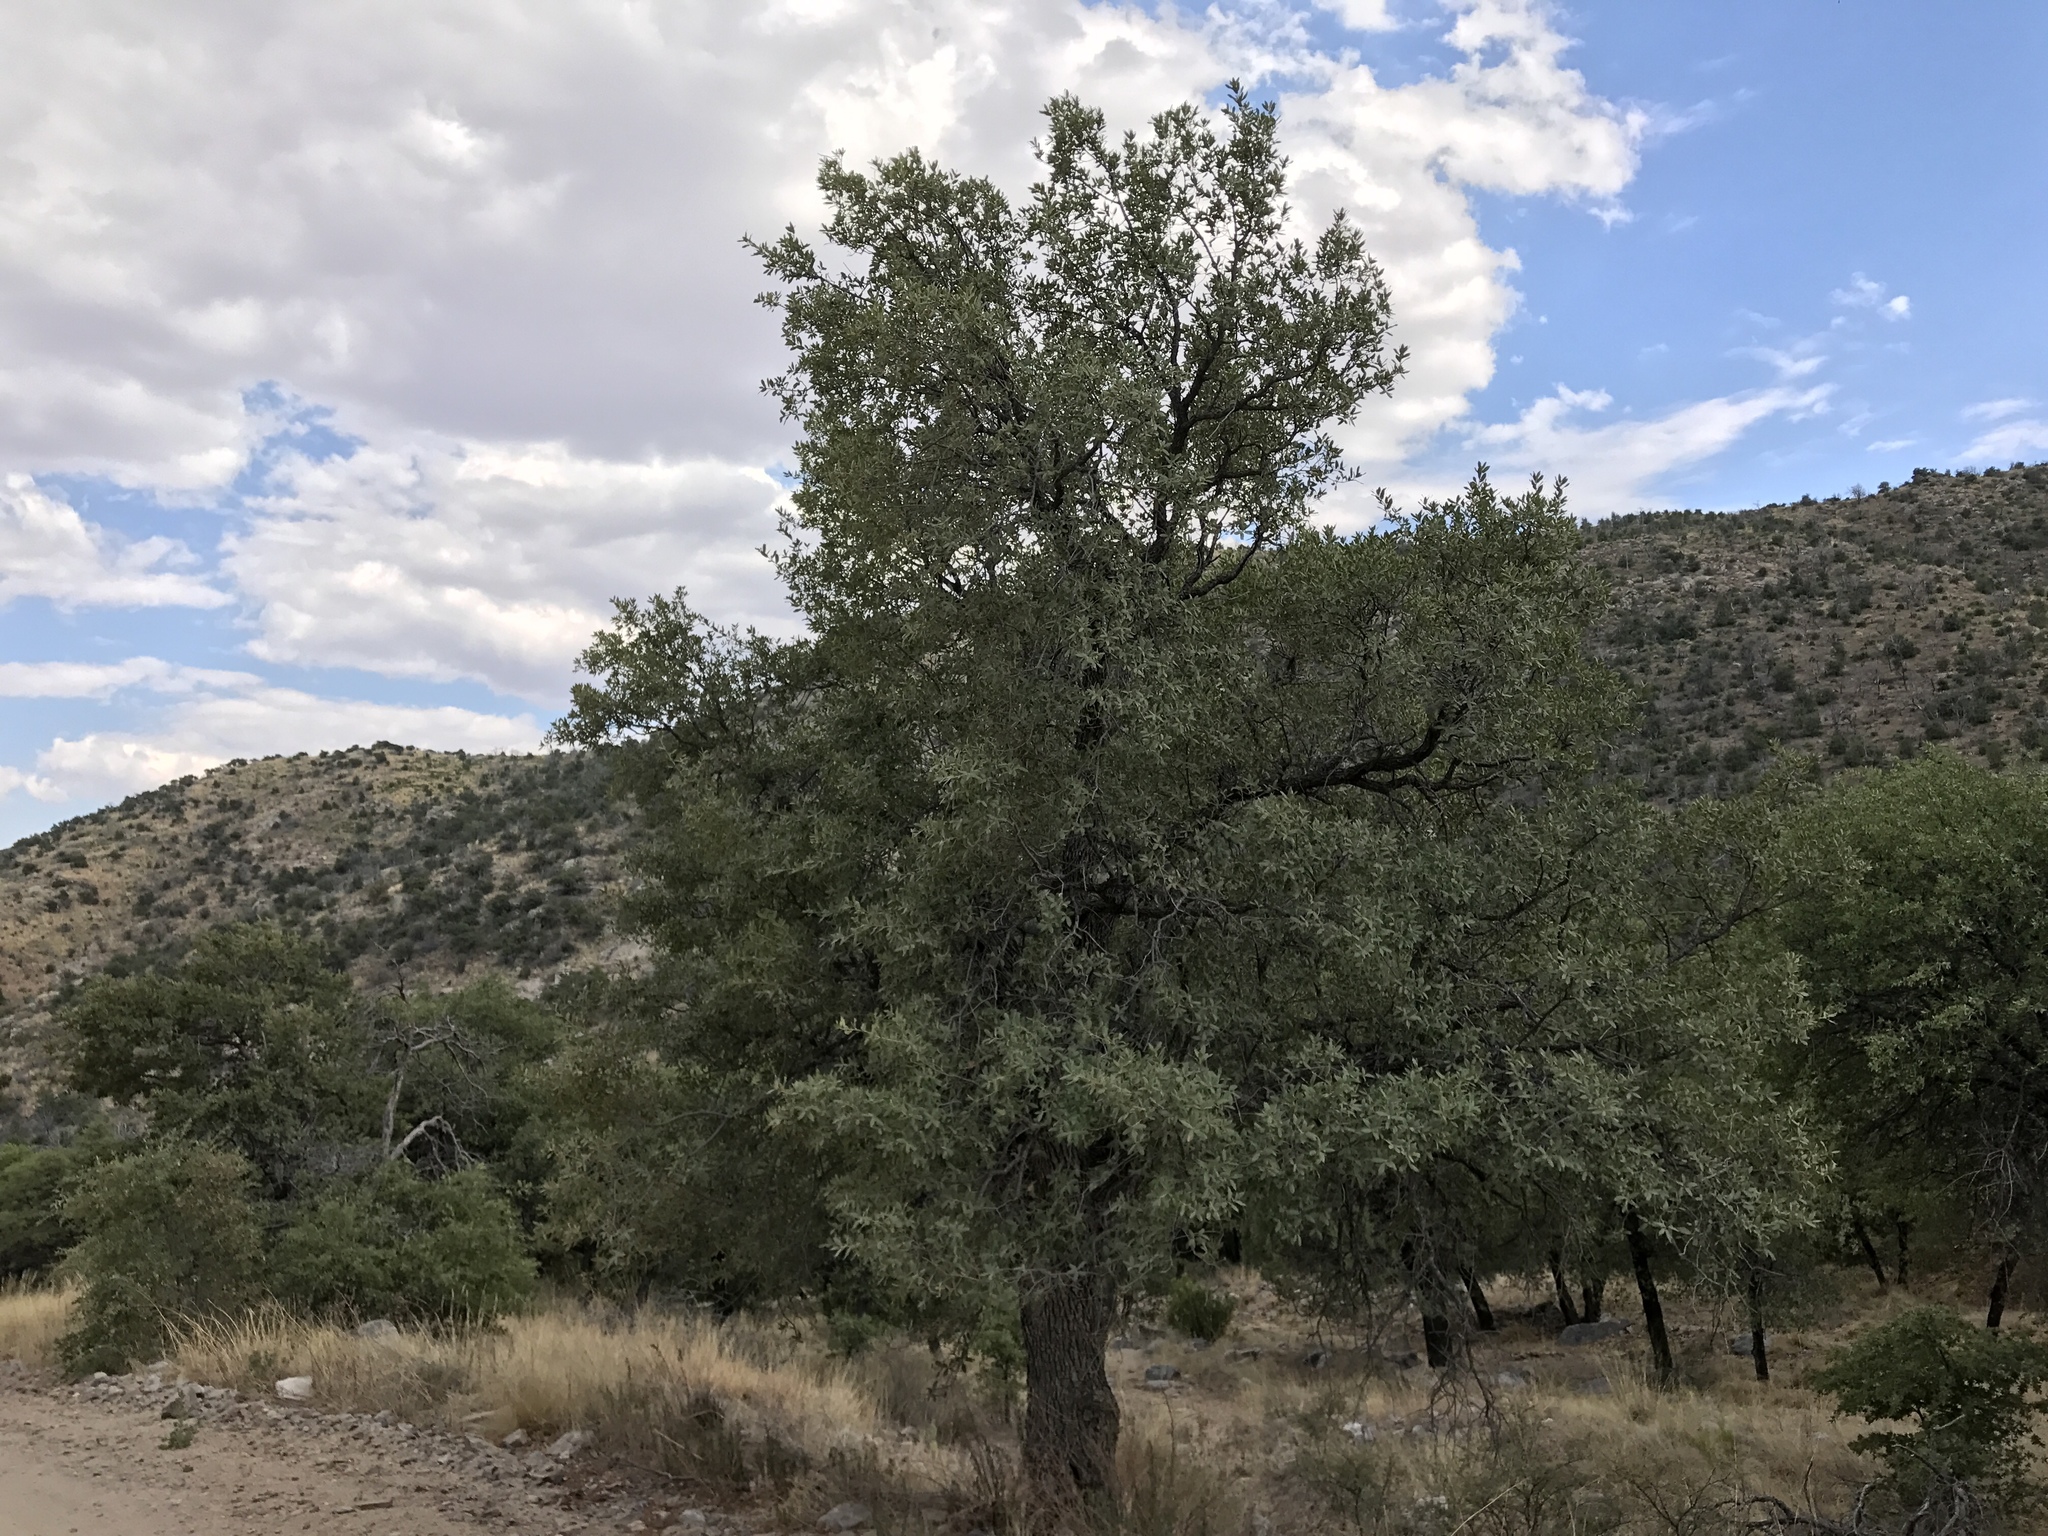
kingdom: Plantae
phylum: Tracheophyta
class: Magnoliopsida
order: Fagales
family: Fagaceae
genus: Quercus
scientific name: Quercus grisea
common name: Gray oak
